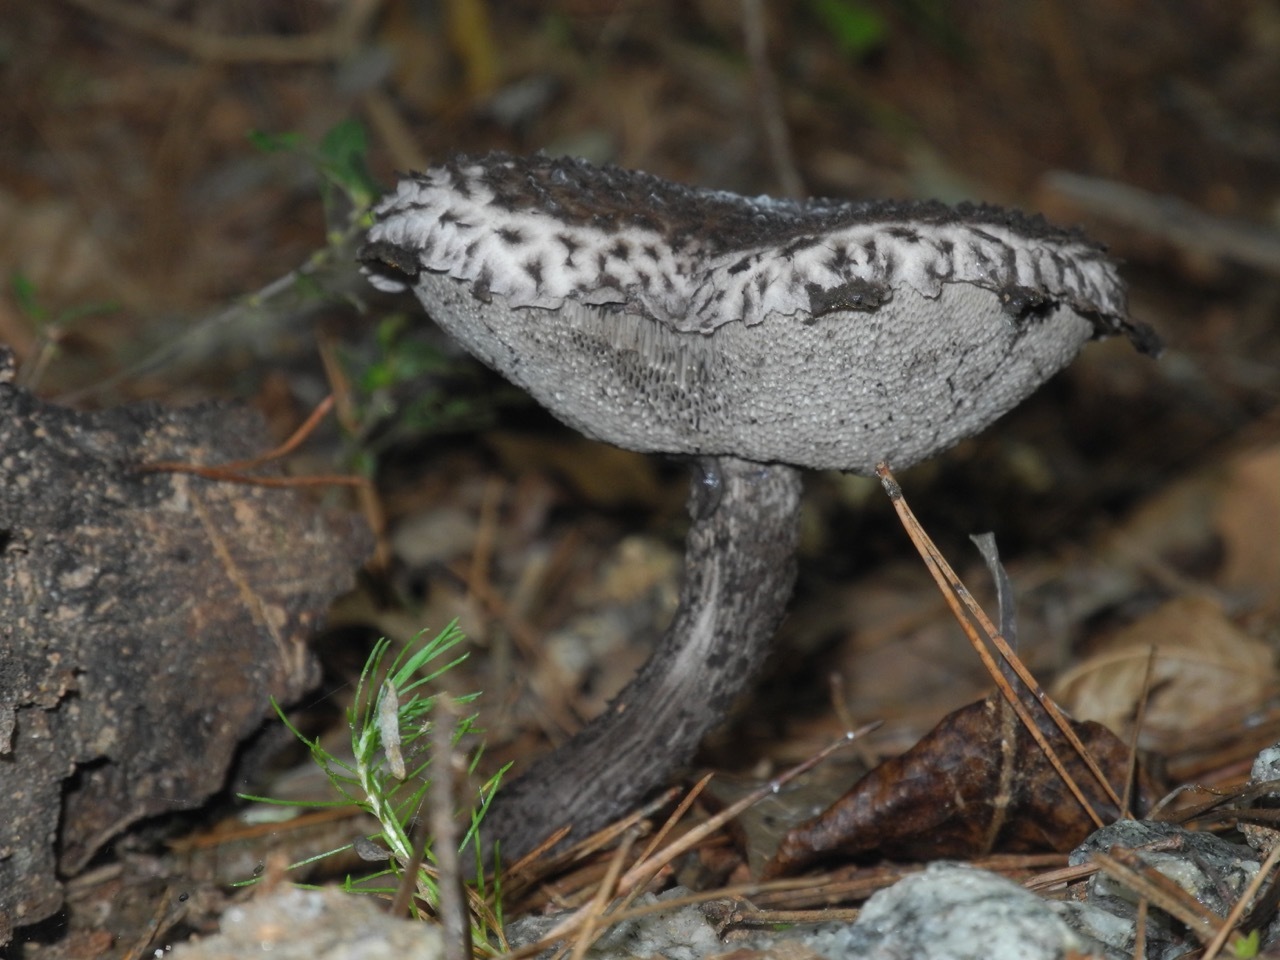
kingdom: Fungi
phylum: Basidiomycota
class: Agaricomycetes
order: Boletales
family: Boletaceae
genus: Strobilomyces
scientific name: Strobilomyces strobilaceus
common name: Old man of the woods
